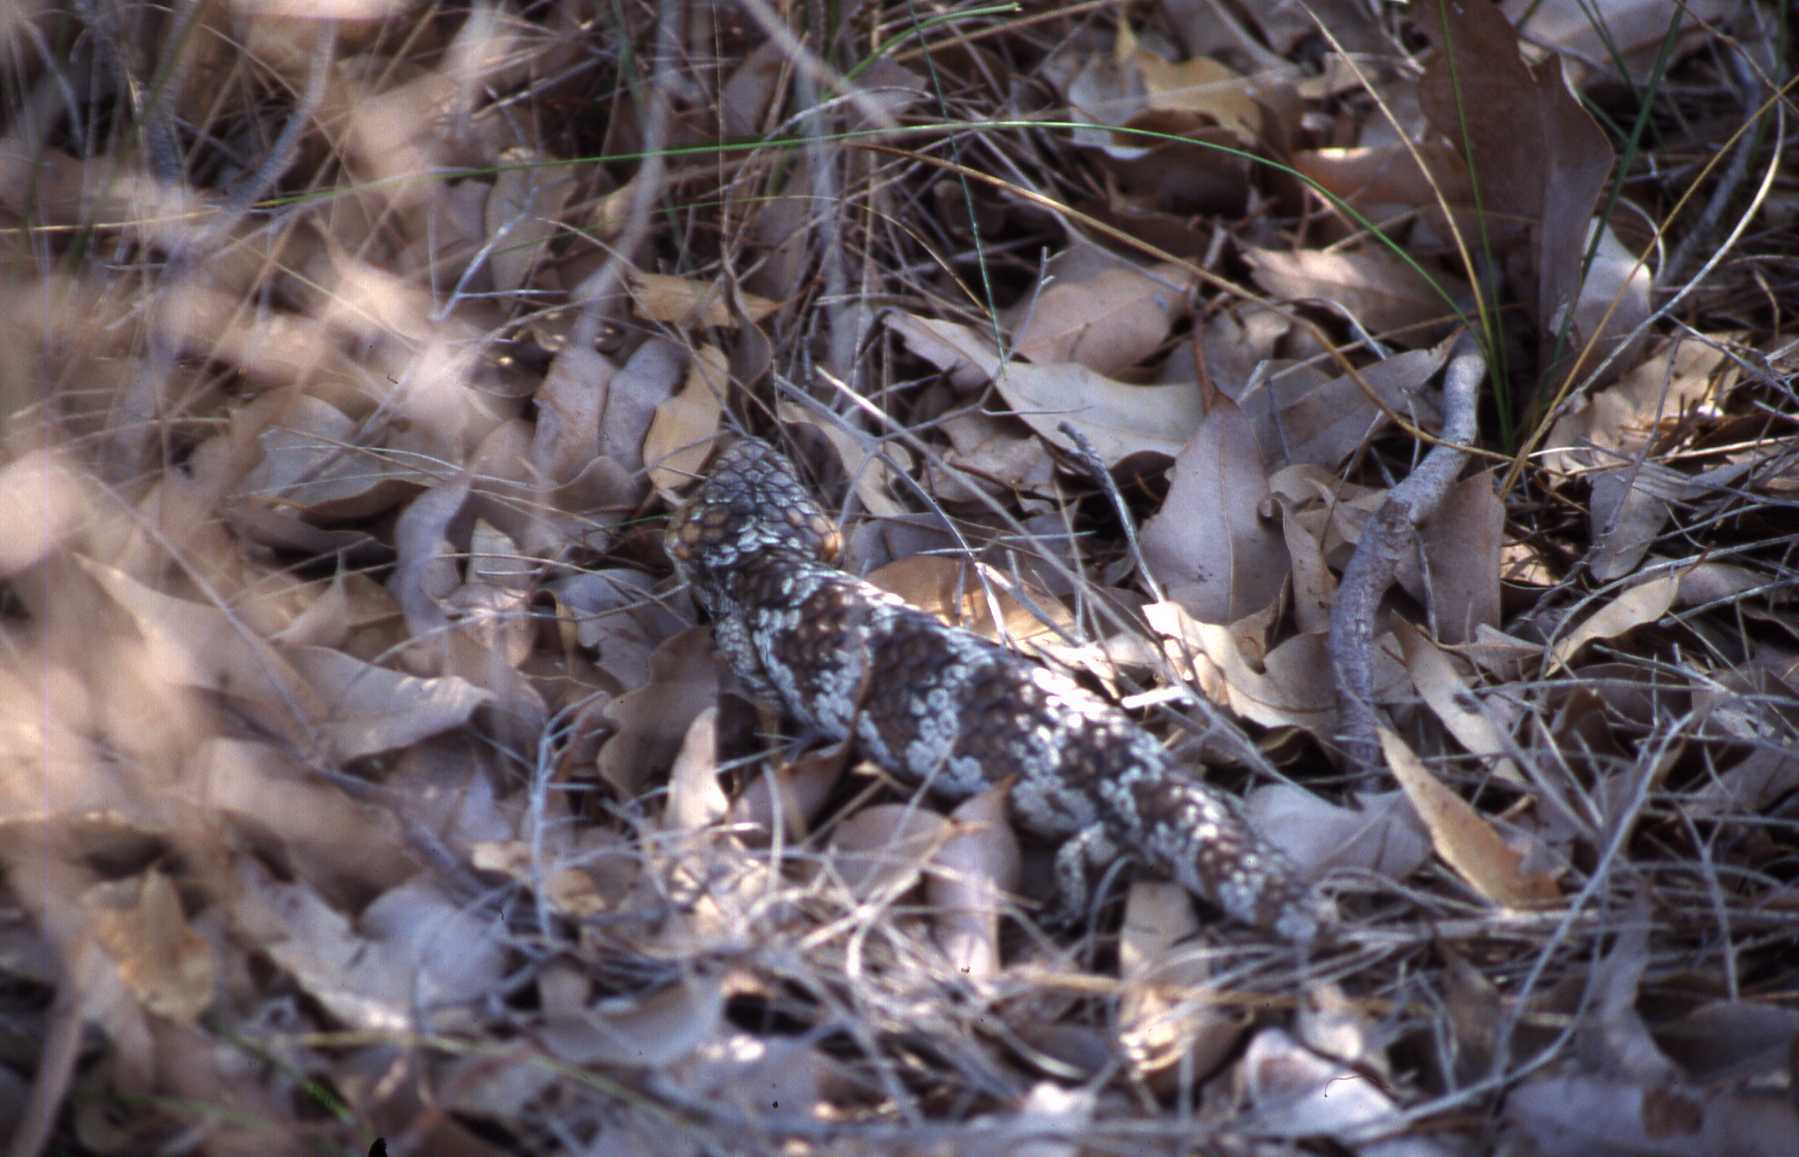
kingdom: Animalia
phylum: Chordata
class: Squamata
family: Scincidae
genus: Tiliqua
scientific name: Tiliqua rugosa
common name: Pinecone lizard
